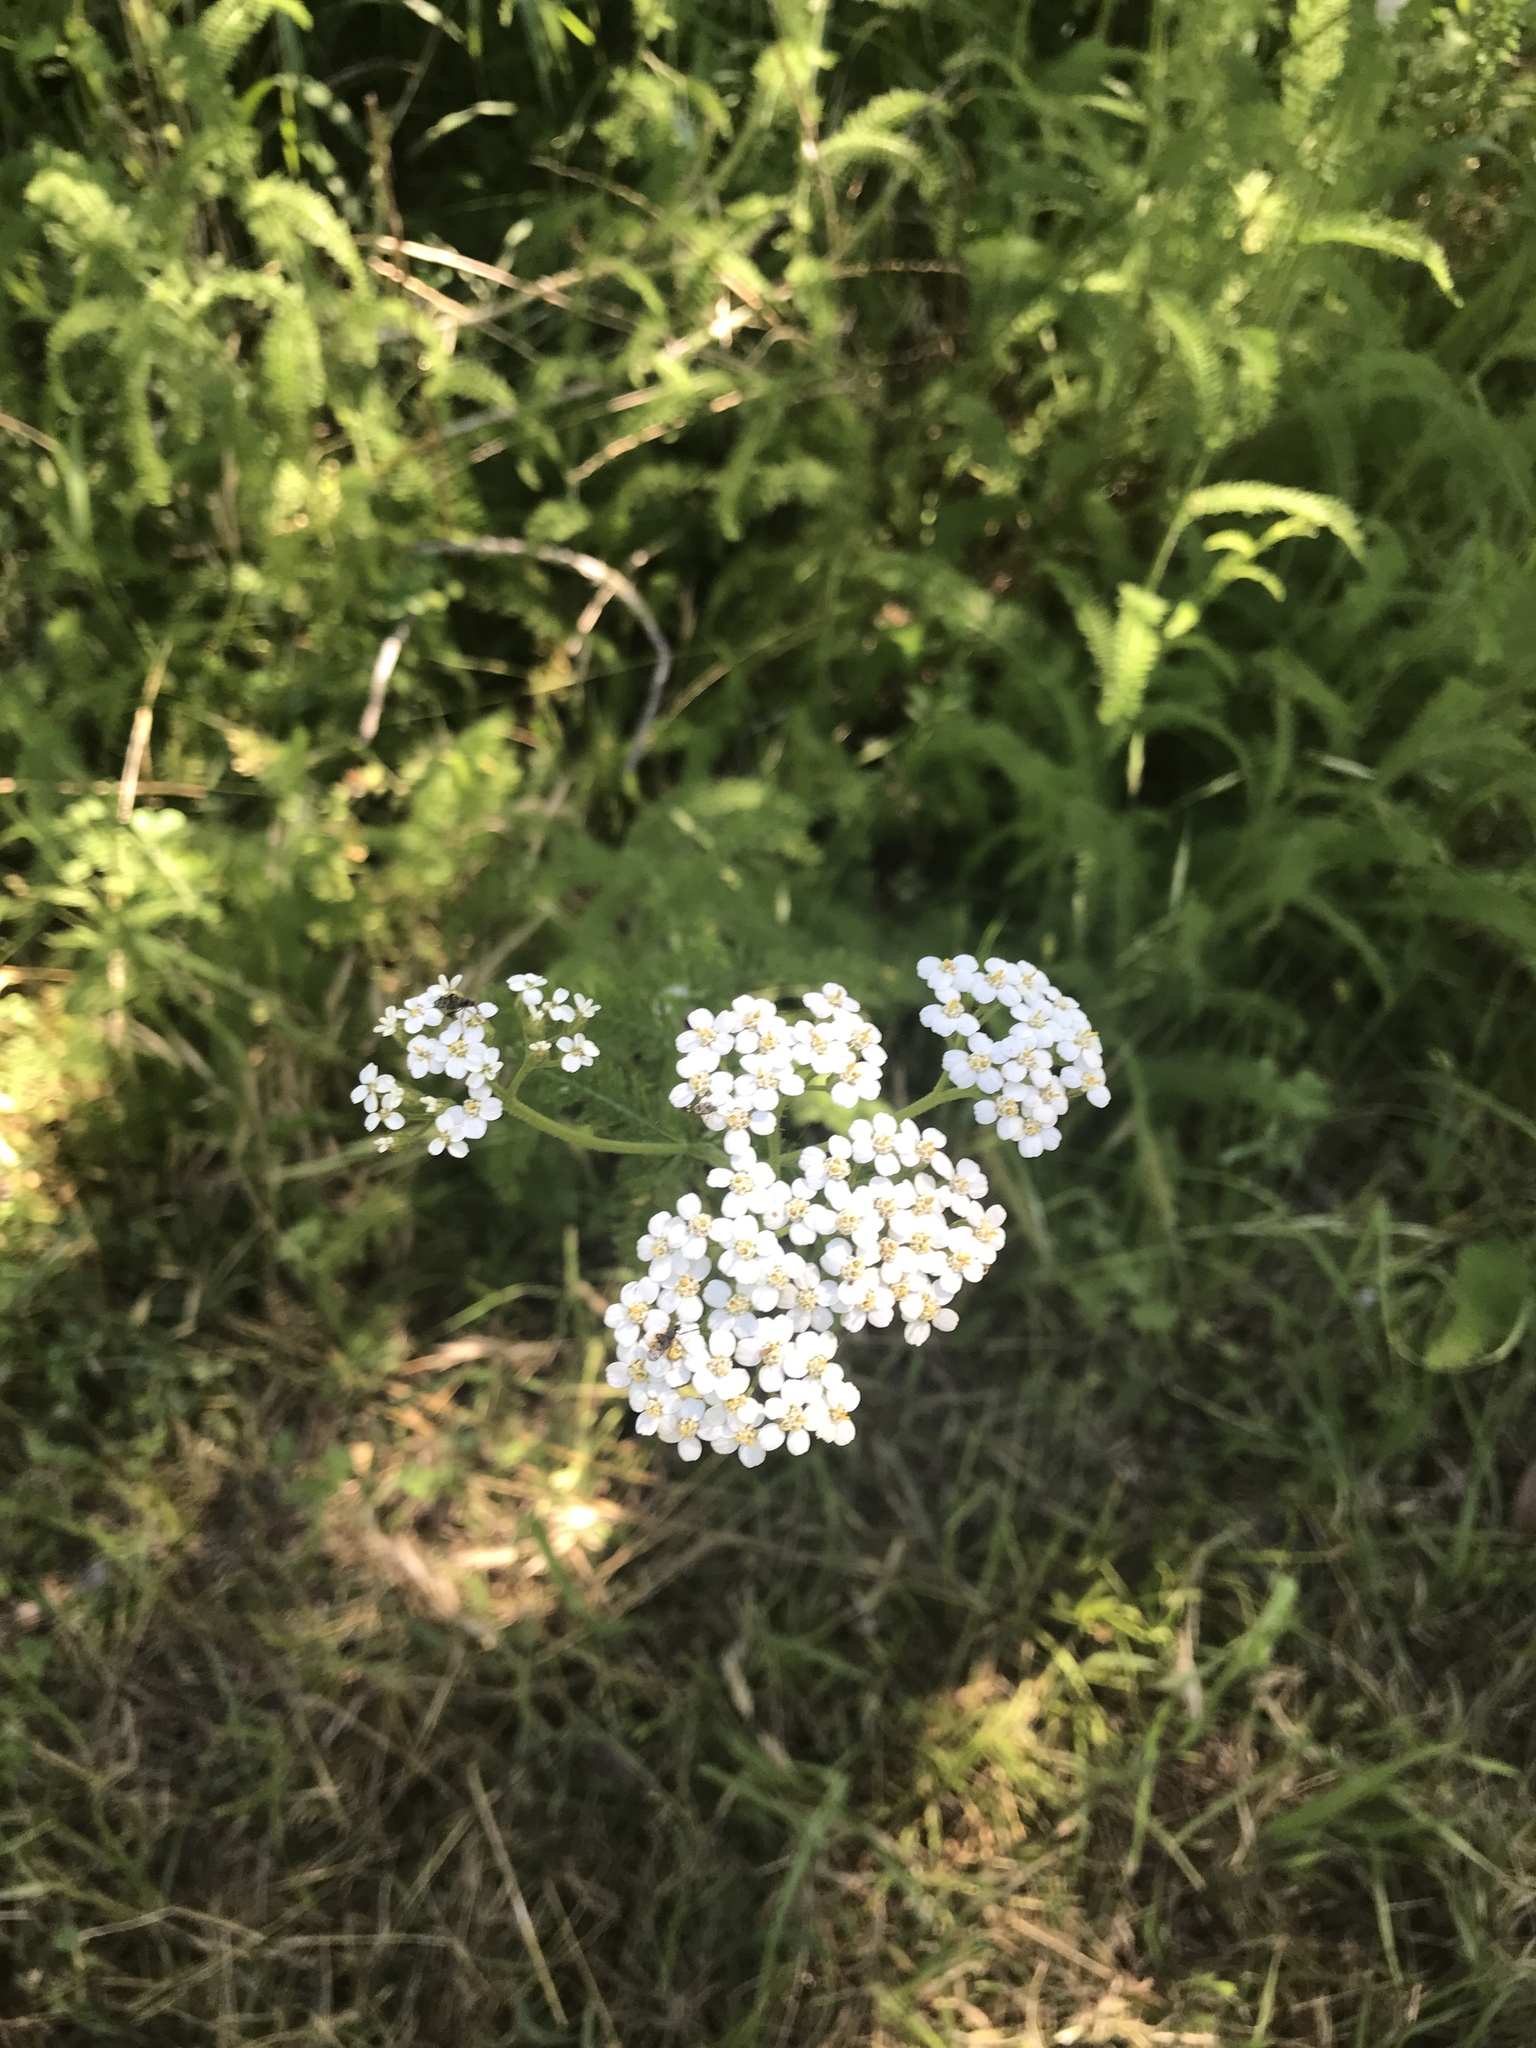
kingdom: Plantae
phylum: Tracheophyta
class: Magnoliopsida
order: Asterales
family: Asteraceae
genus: Achillea
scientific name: Achillea millefolium
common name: Yarrow
